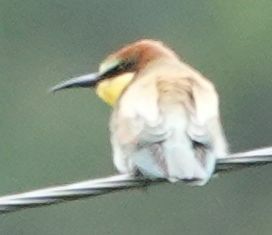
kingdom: Animalia
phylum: Chordata
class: Aves
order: Coraciiformes
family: Meropidae
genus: Merops
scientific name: Merops apiaster
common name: European bee-eater
